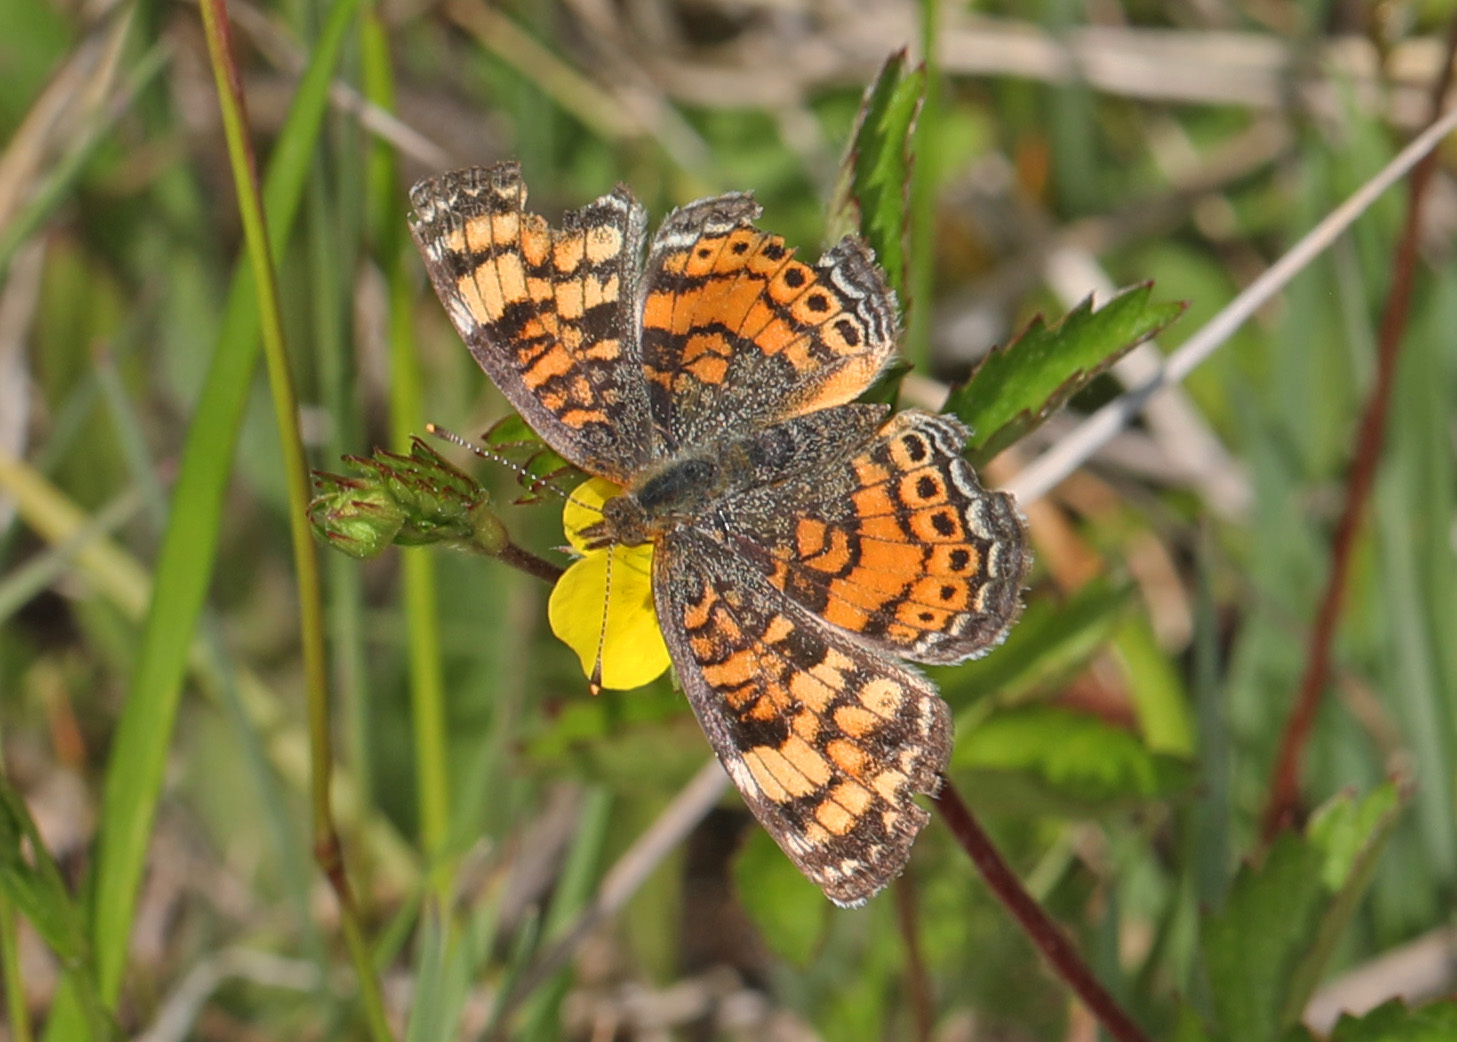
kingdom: Animalia
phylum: Arthropoda
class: Insecta
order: Lepidoptera
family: Nymphalidae
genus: Phyciodes
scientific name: Phyciodes tharos
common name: Pearl crescent
